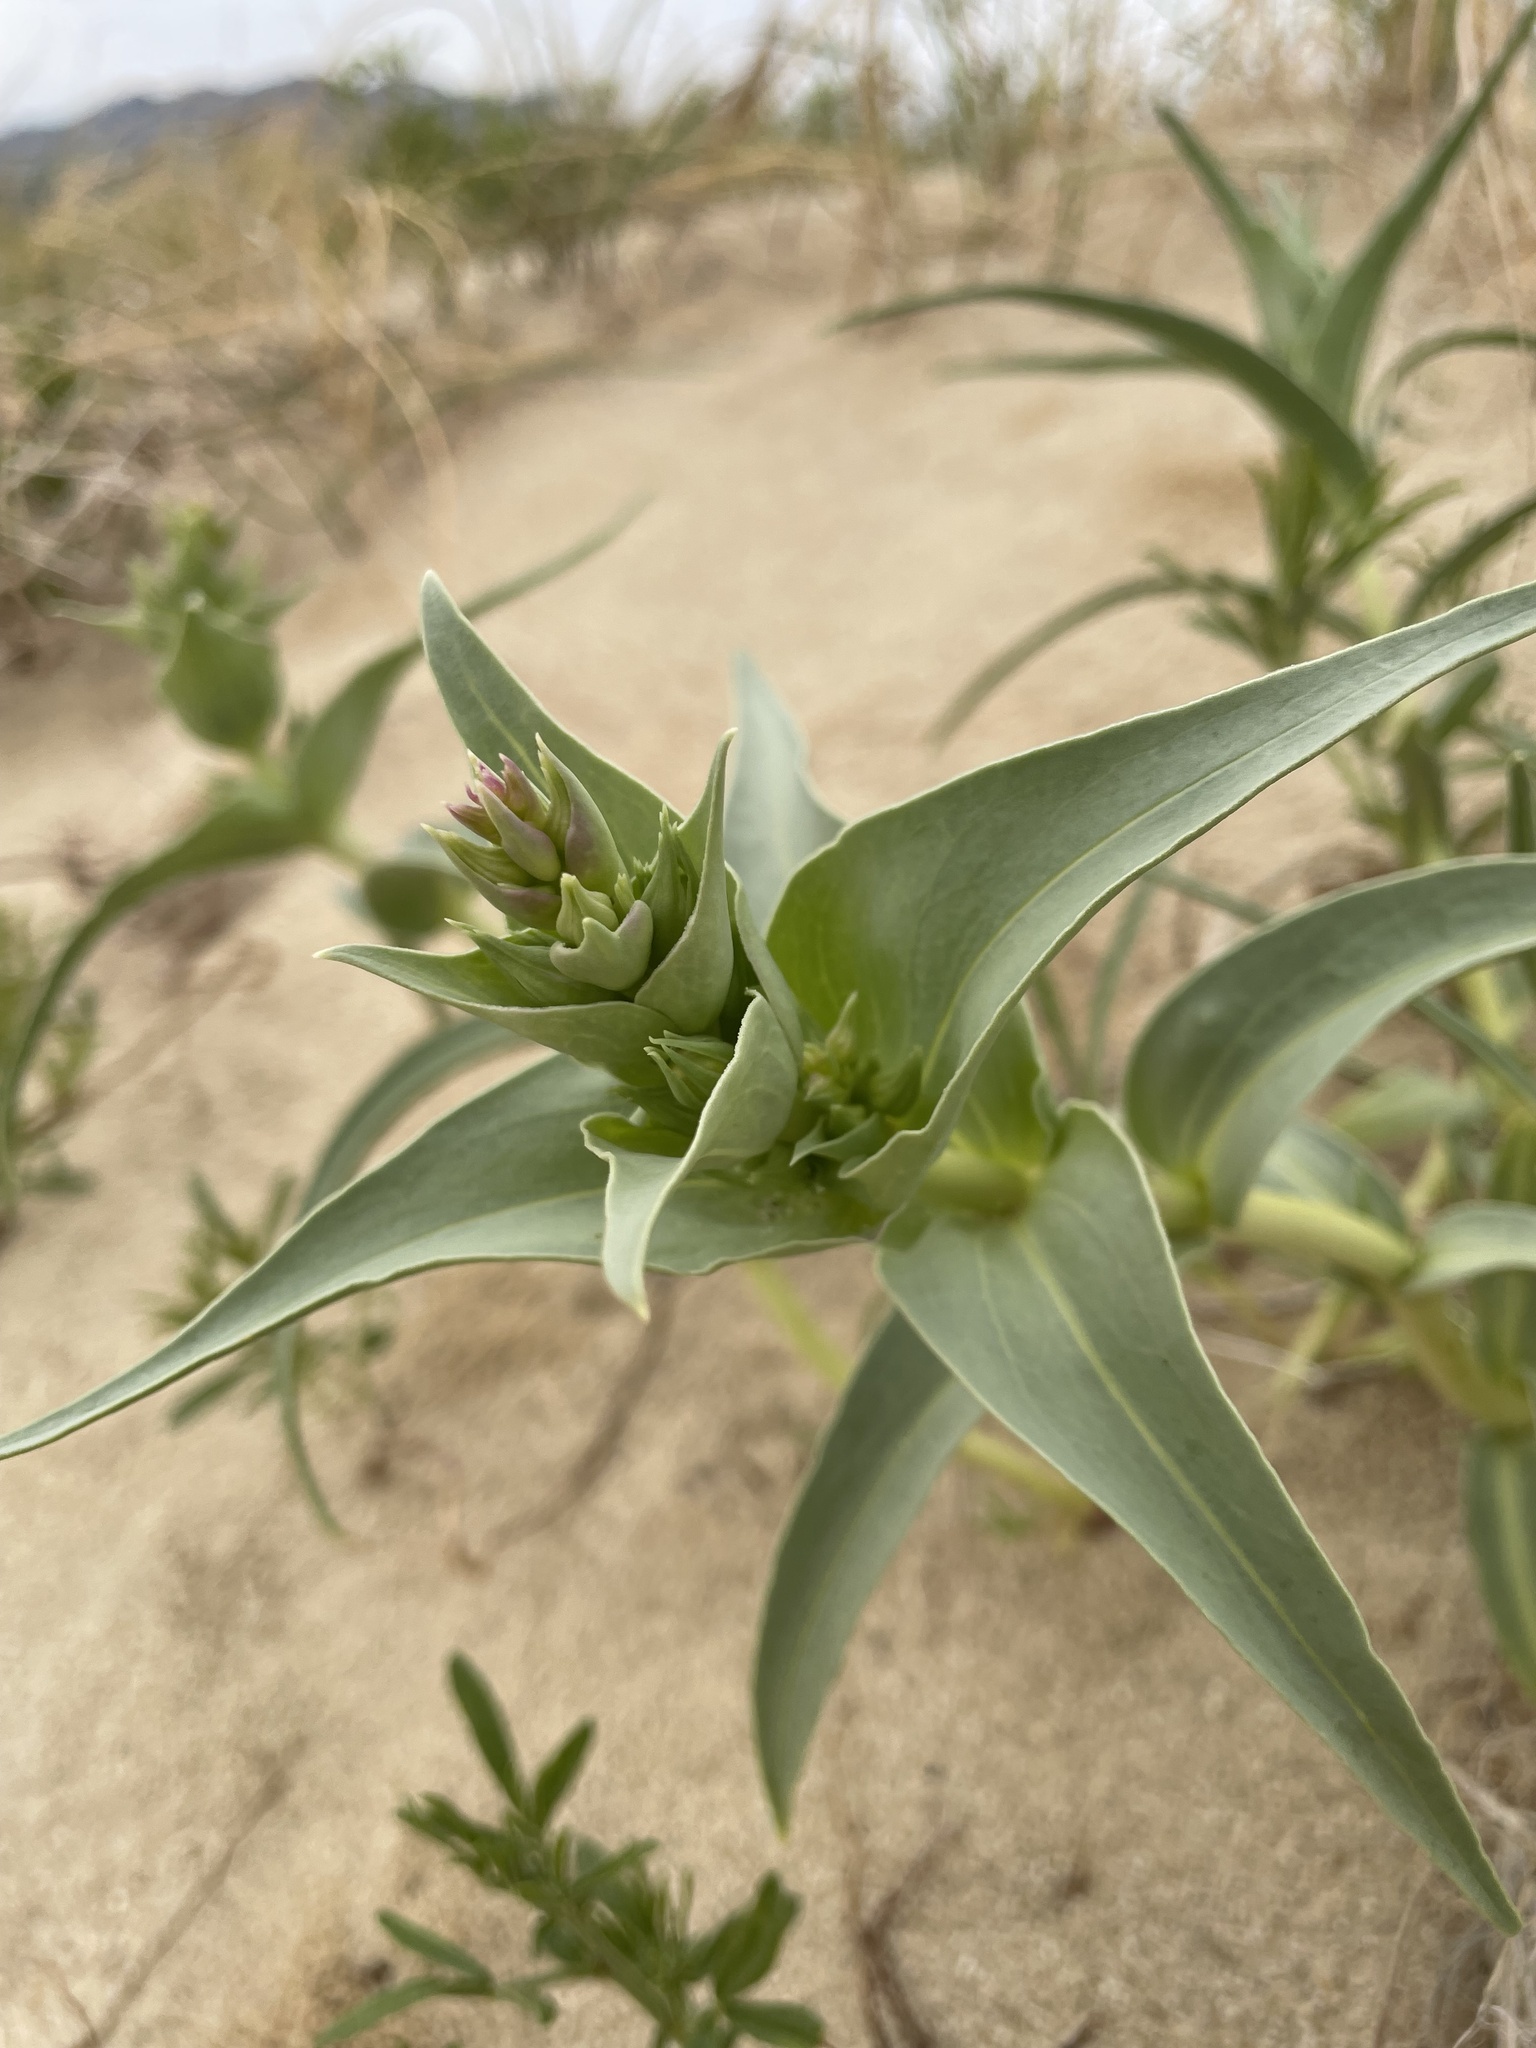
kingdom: Plantae
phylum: Tracheophyta
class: Magnoliopsida
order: Lamiales
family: Plantaginaceae
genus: Penstemon
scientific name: Penstemon haydenii
